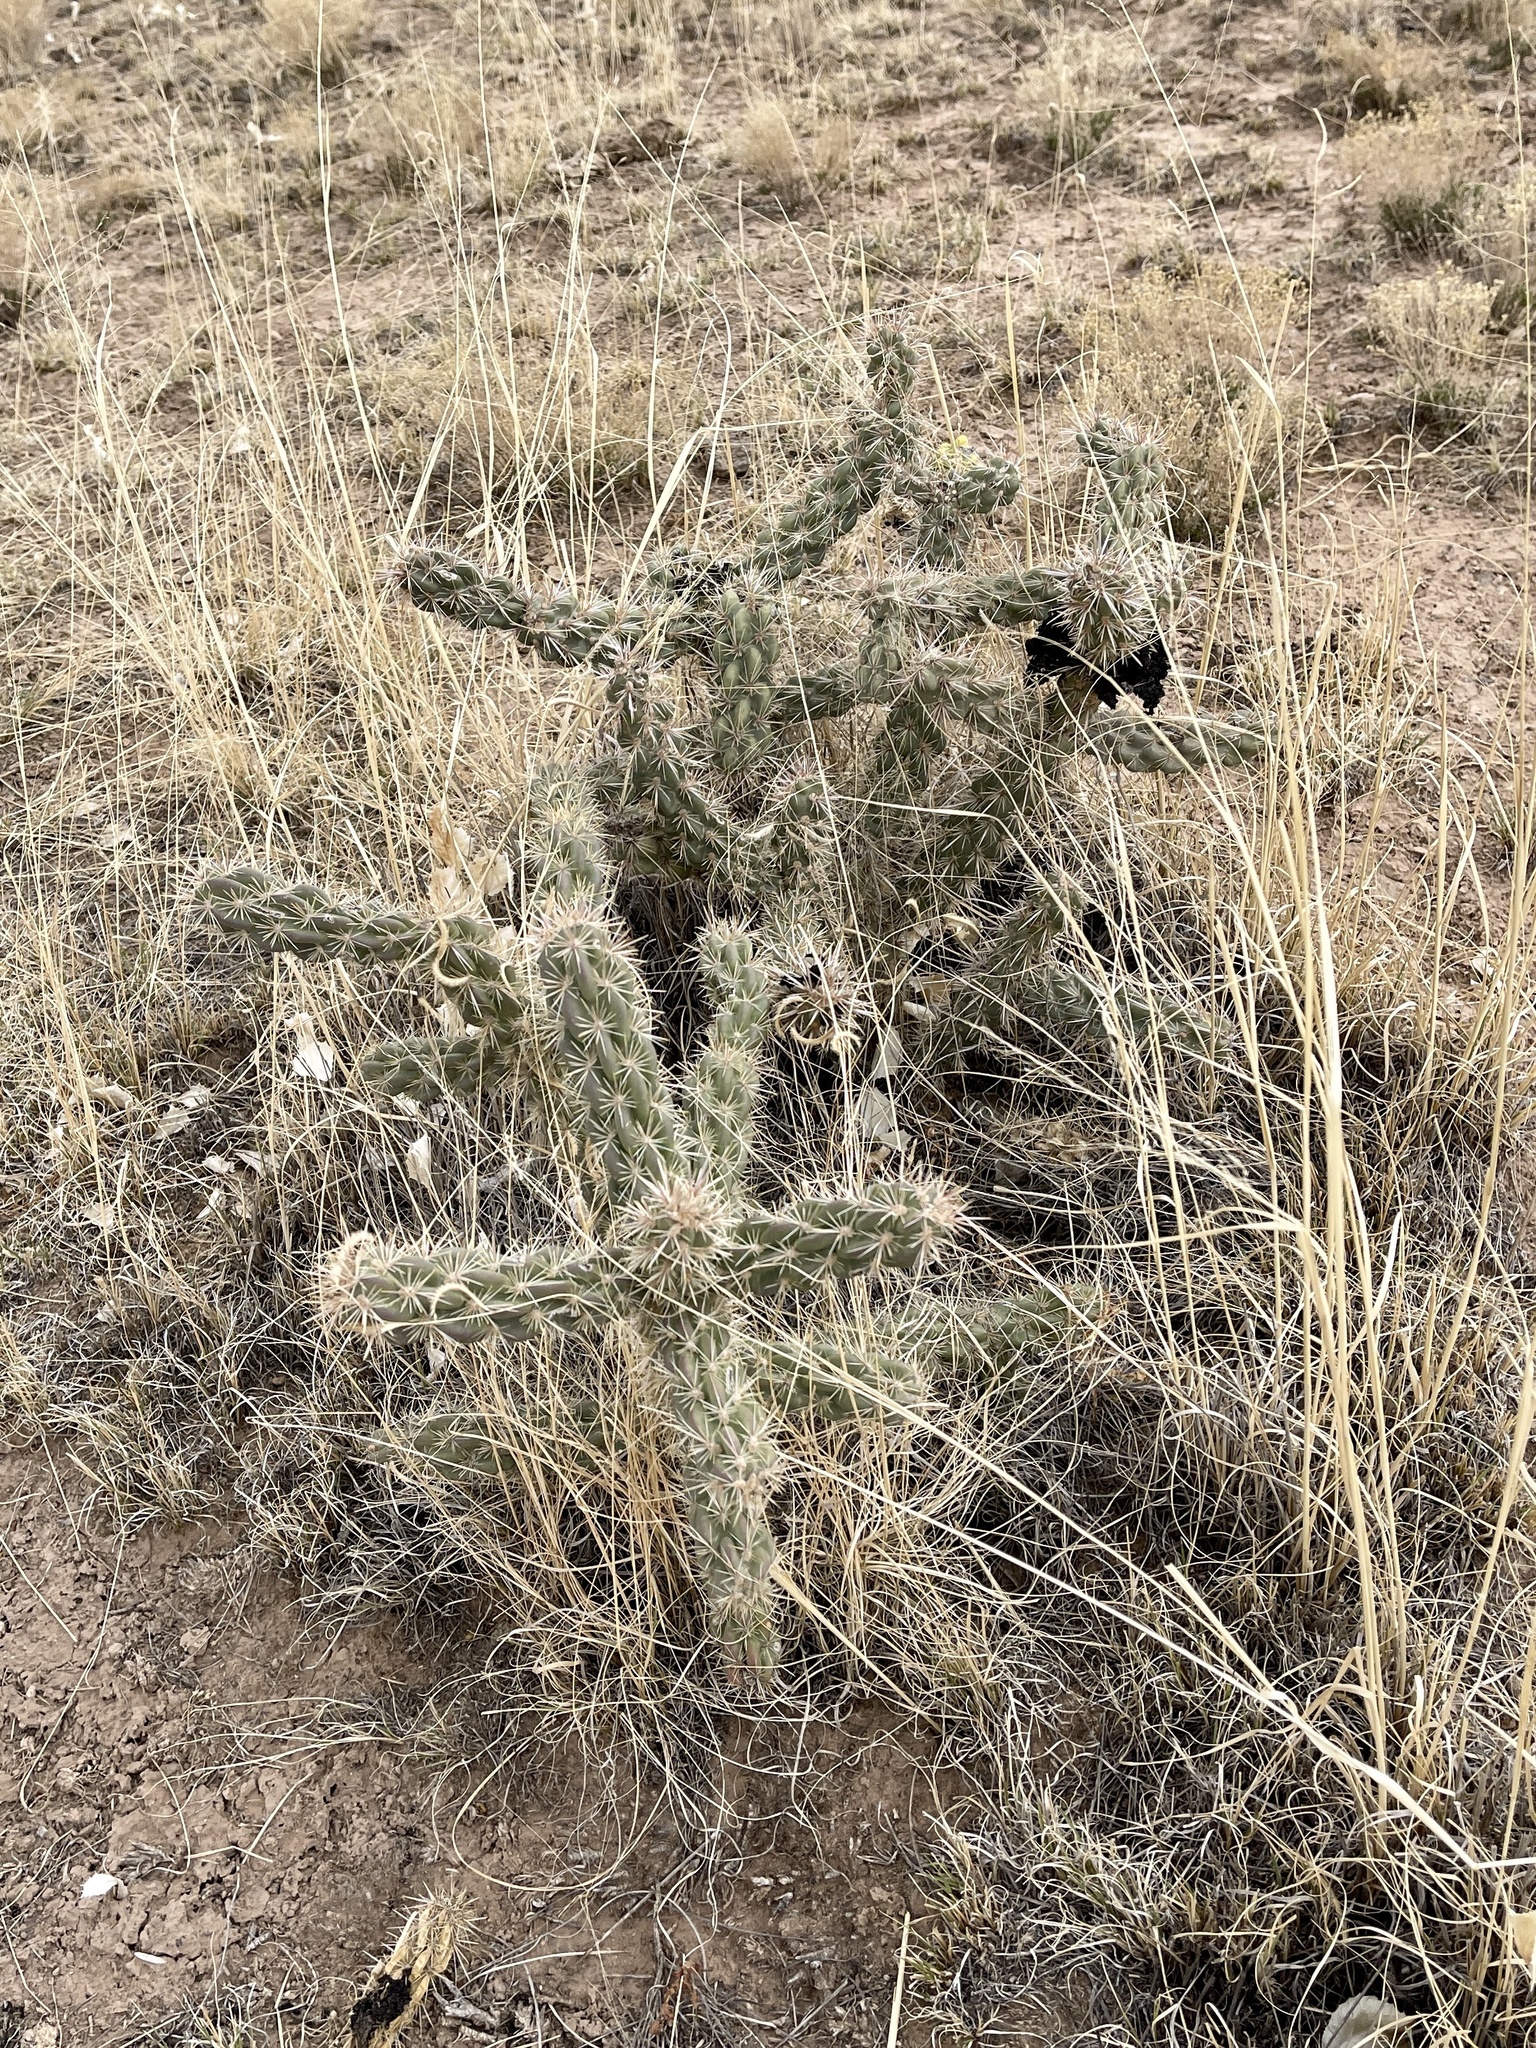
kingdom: Plantae
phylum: Tracheophyta
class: Magnoliopsida
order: Caryophyllales
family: Cactaceae
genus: Cylindropuntia
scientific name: Cylindropuntia imbricata
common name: Candelabrum cactus
